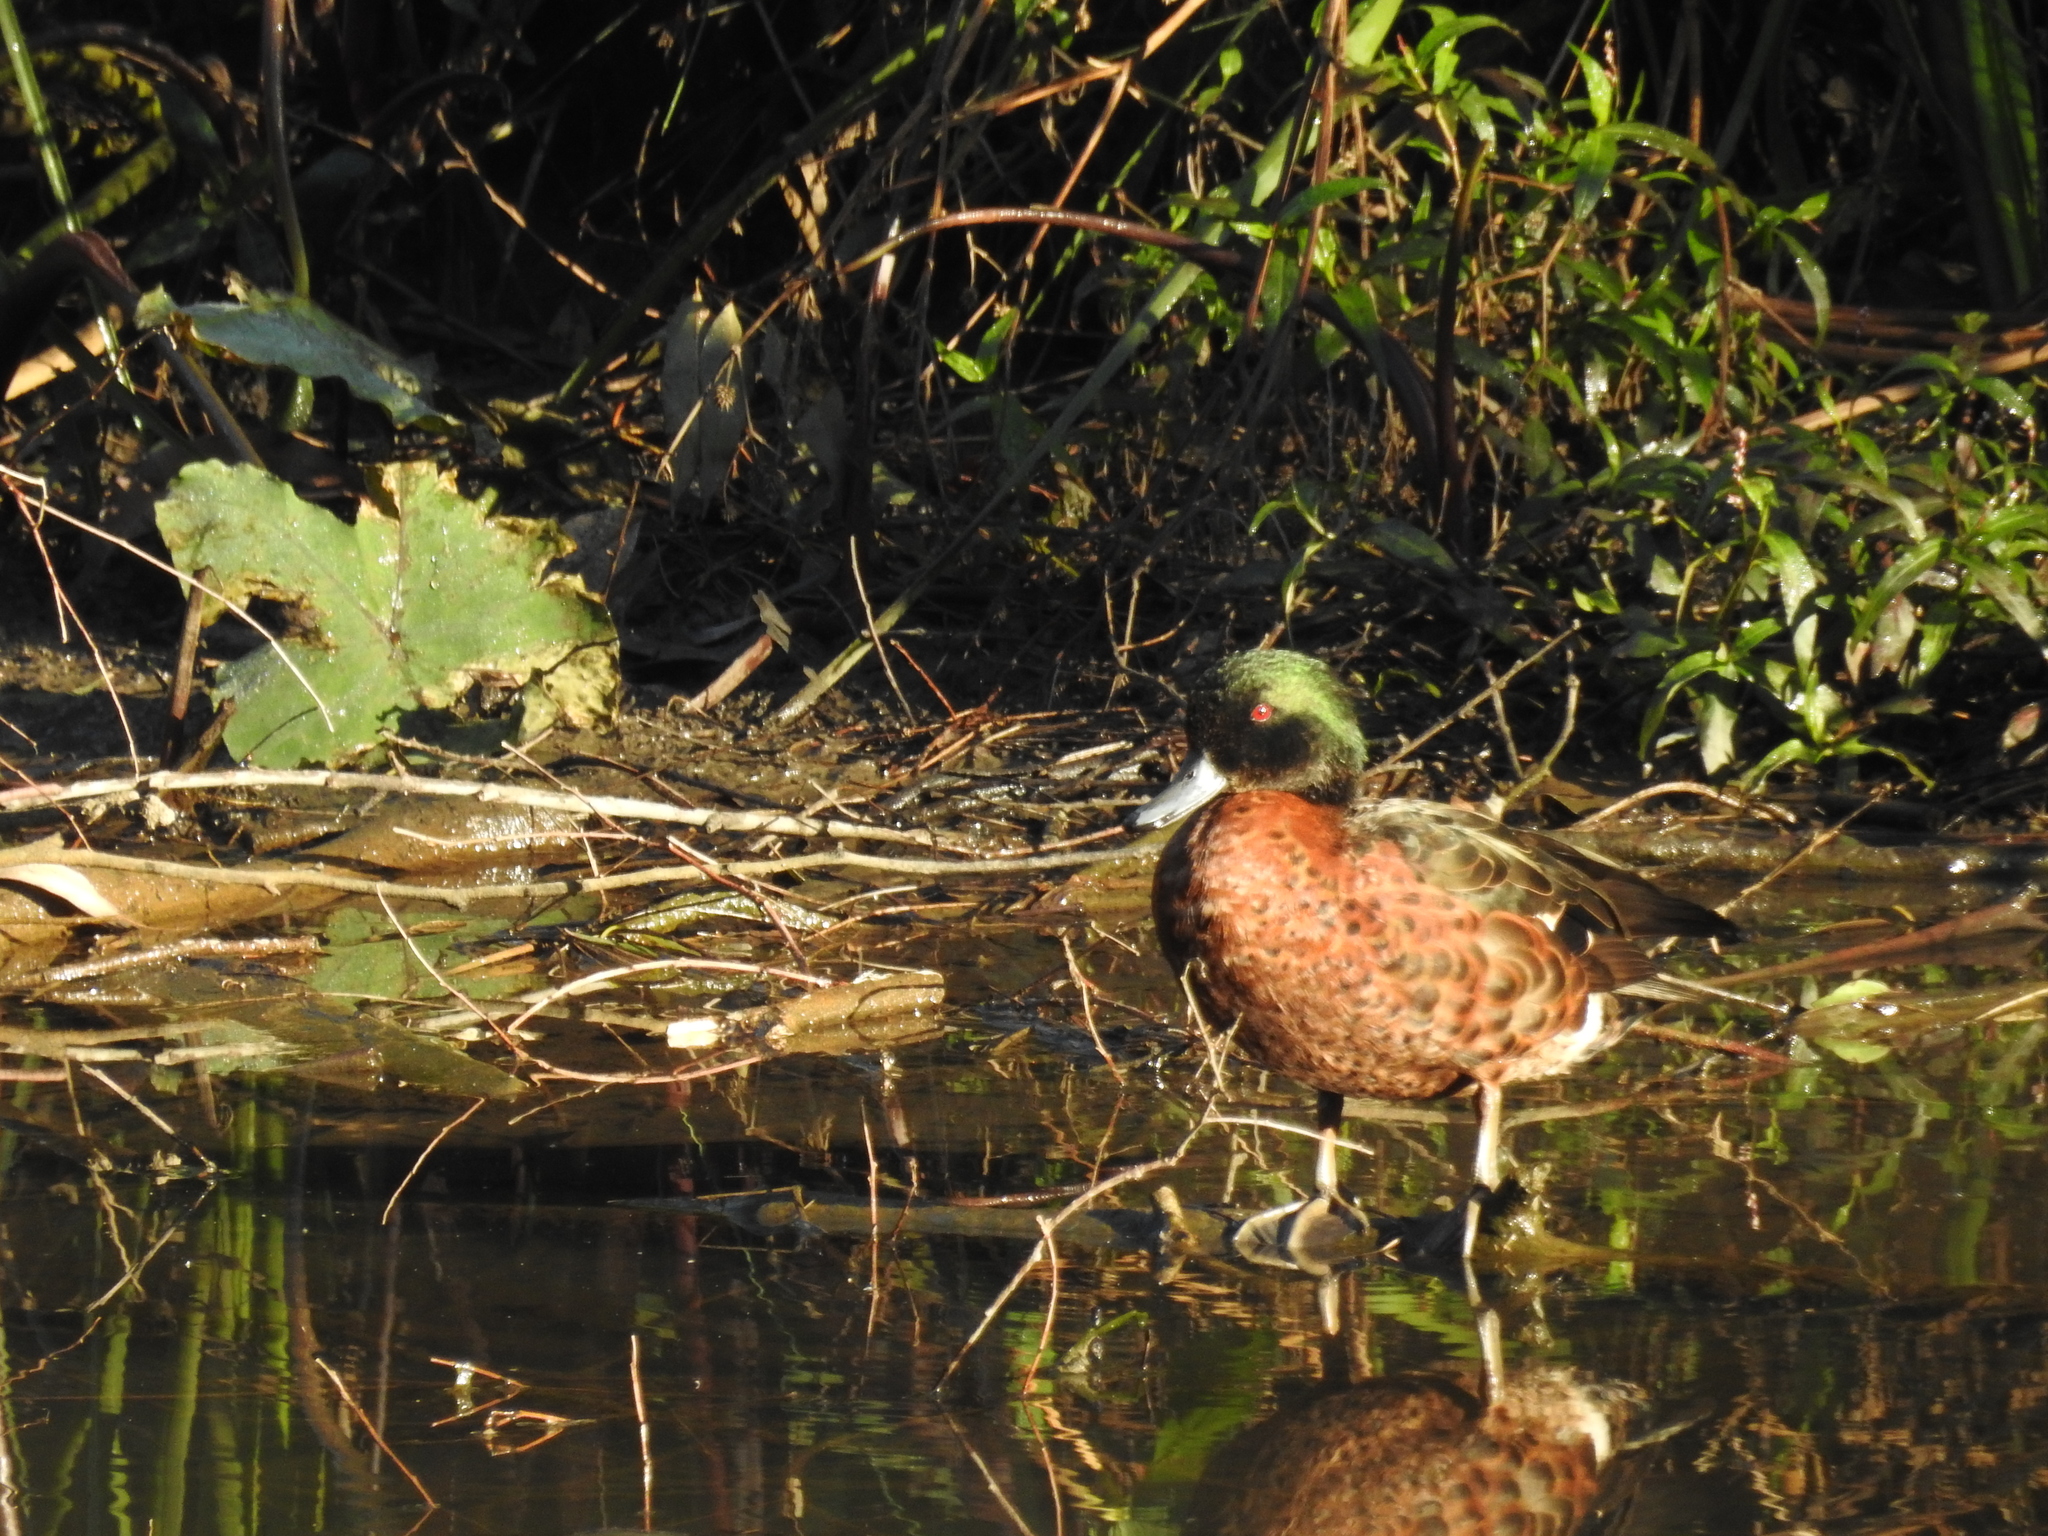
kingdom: Animalia
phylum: Chordata
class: Aves
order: Anseriformes
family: Anatidae
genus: Anas
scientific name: Anas castanea
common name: Chestnut teal
